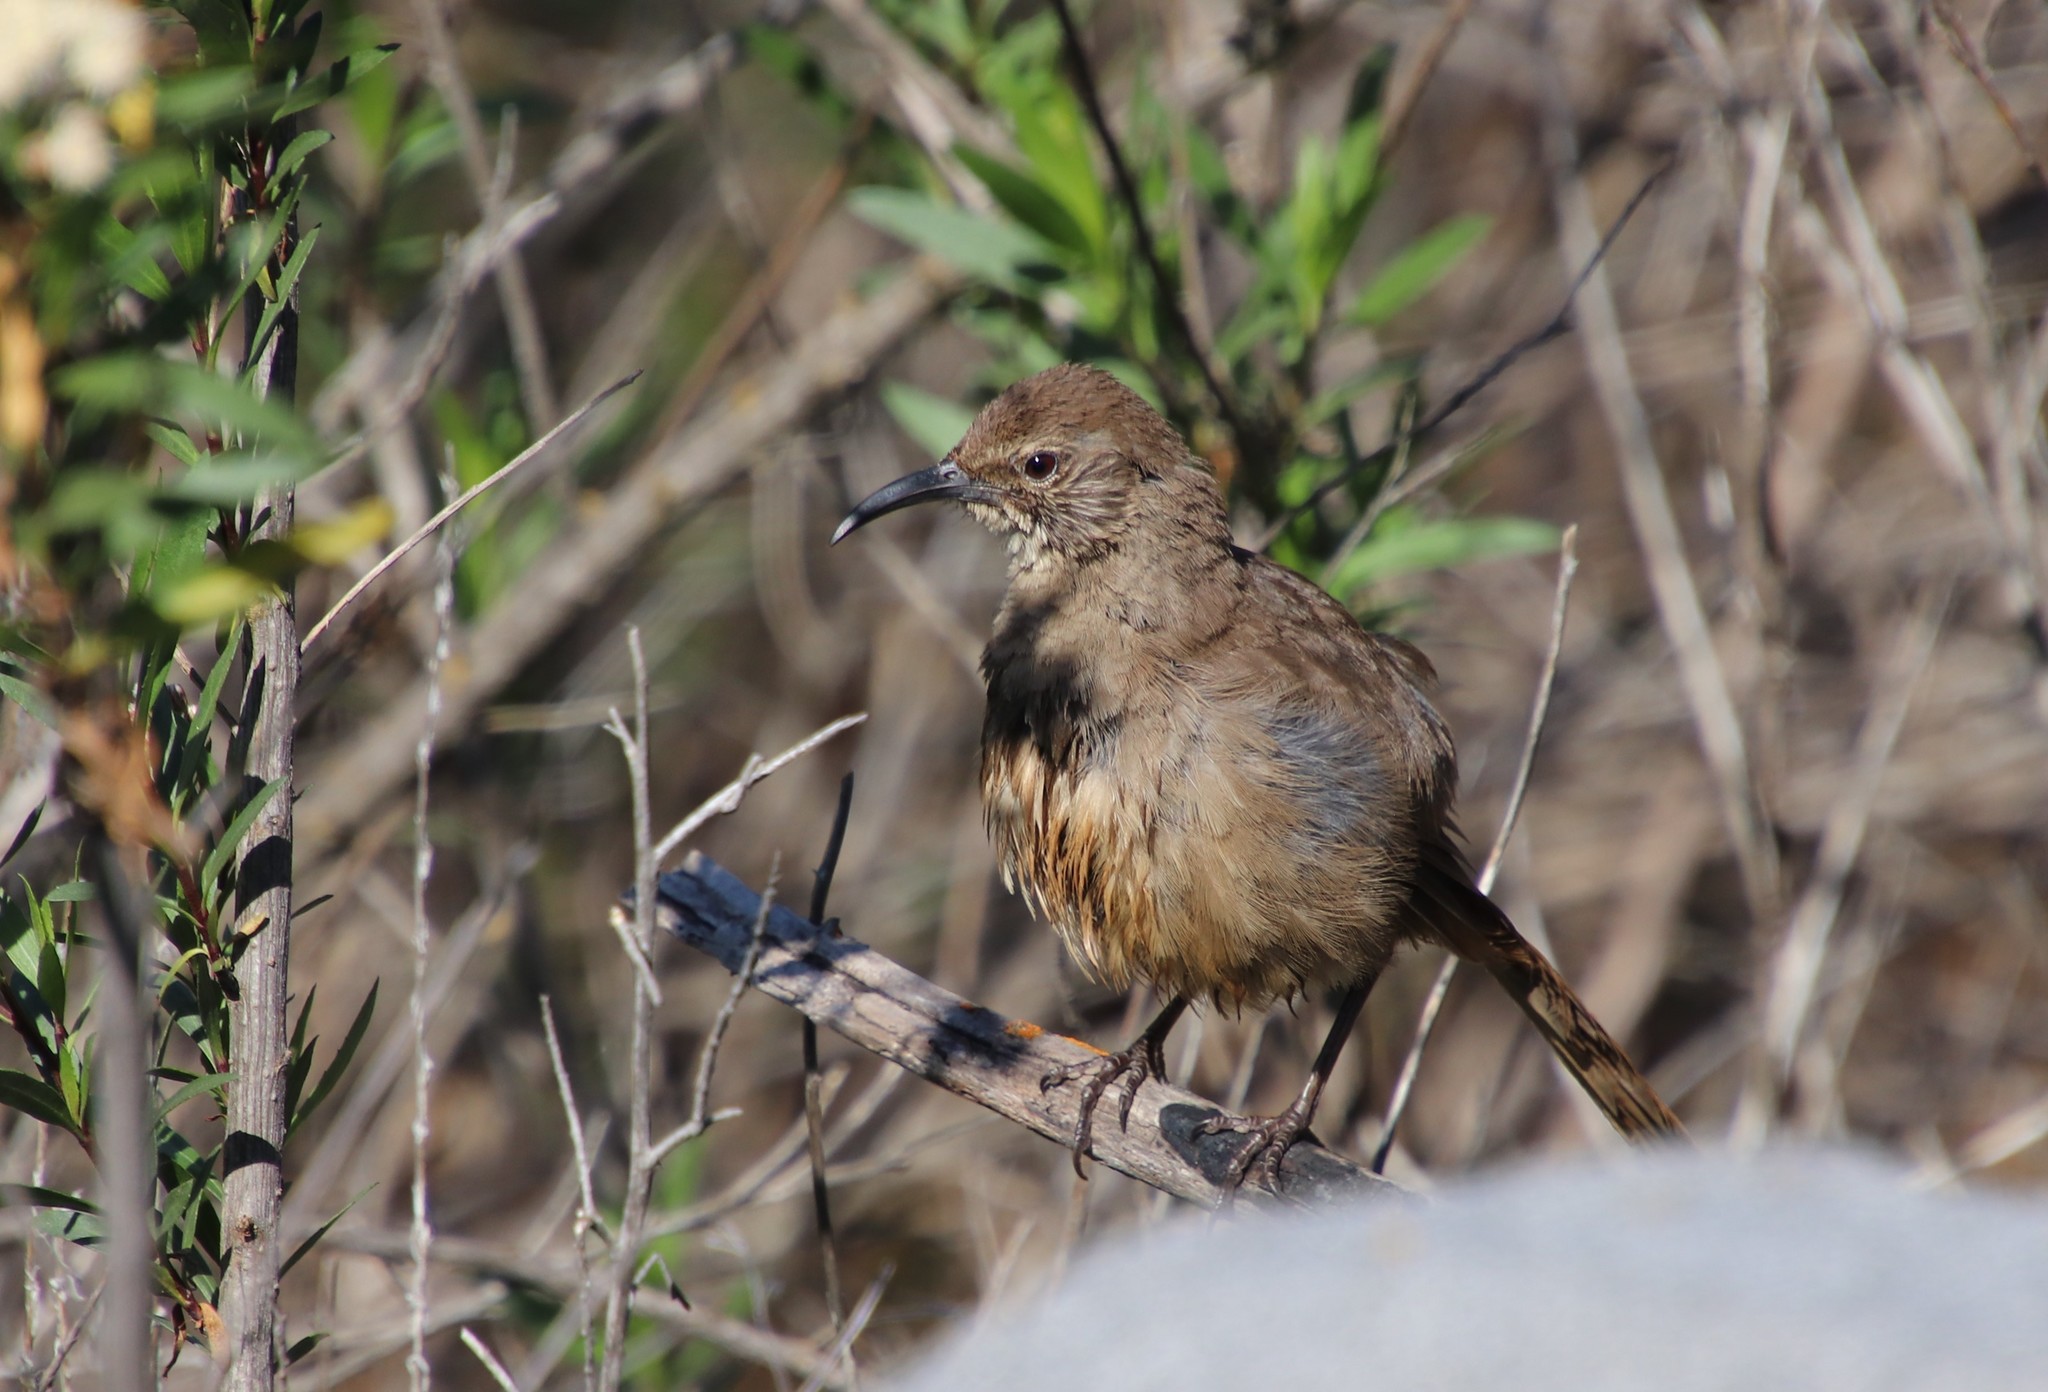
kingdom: Animalia
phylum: Chordata
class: Aves
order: Passeriformes
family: Mimidae
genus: Toxostoma
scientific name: Toxostoma redivivum
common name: California thrasher
